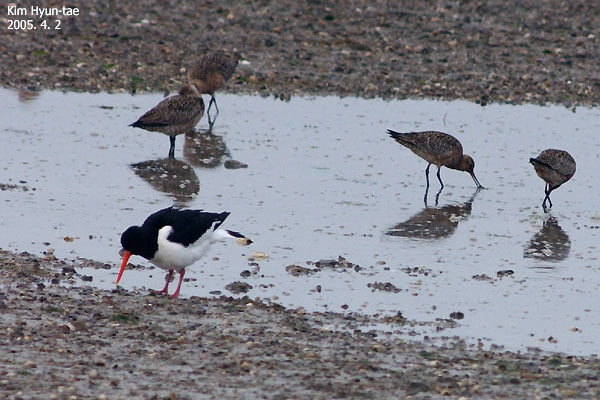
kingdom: Animalia
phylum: Chordata
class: Aves
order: Charadriiformes
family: Haematopodidae
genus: Haematopus
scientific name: Haematopus ostralegus
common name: Eurasian oystercatcher
